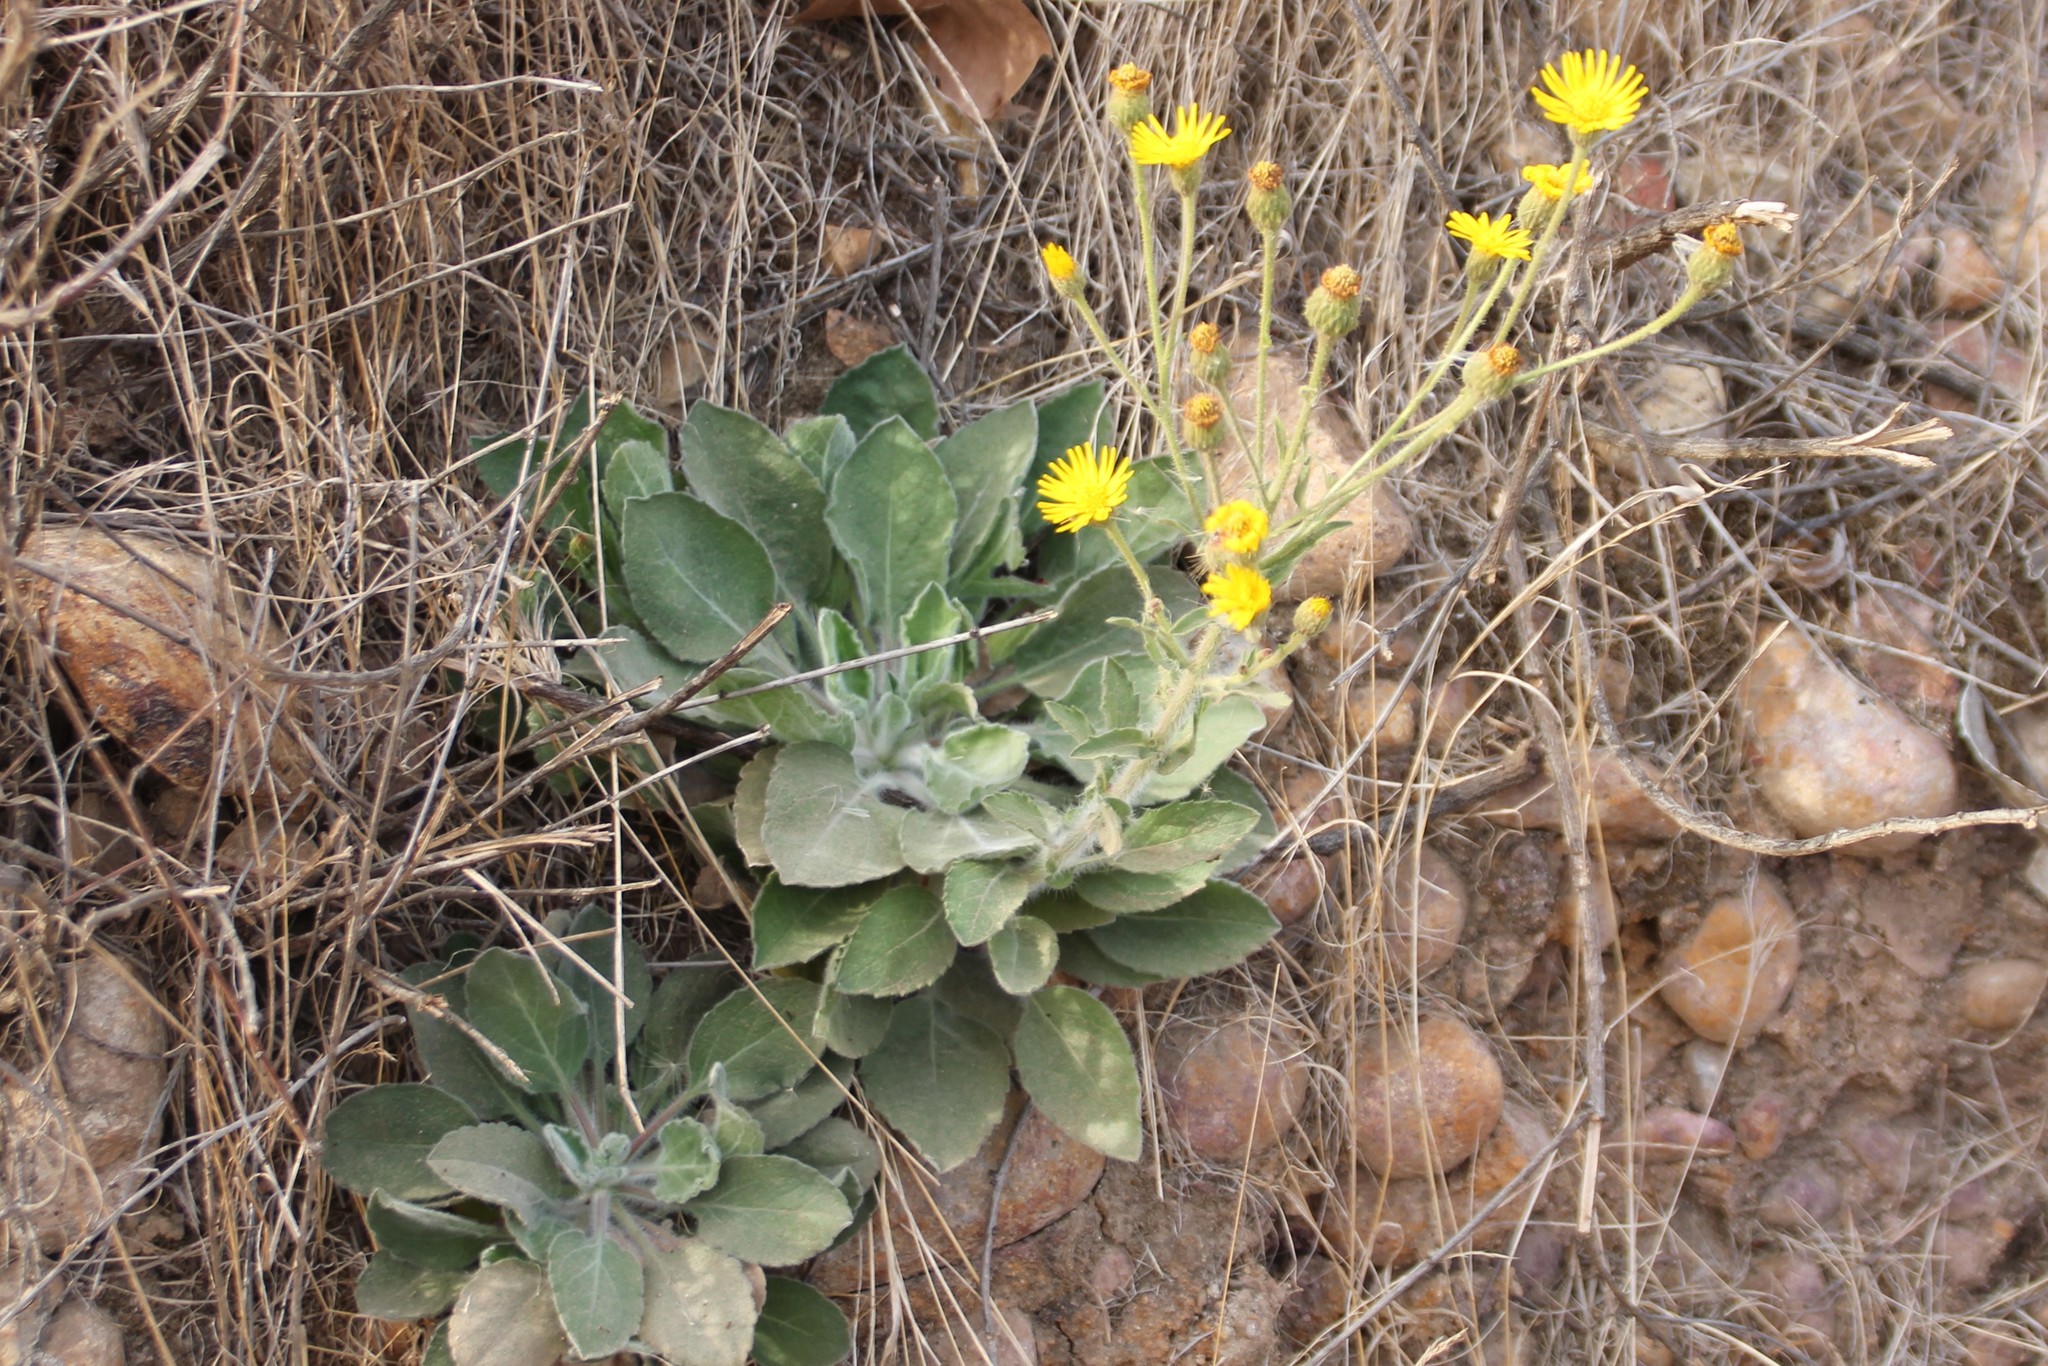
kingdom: Plantae
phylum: Tracheophyta
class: Magnoliopsida
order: Asterales
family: Asteraceae
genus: Heterotheca
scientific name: Heterotheca grandiflora
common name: Telegraphweed
